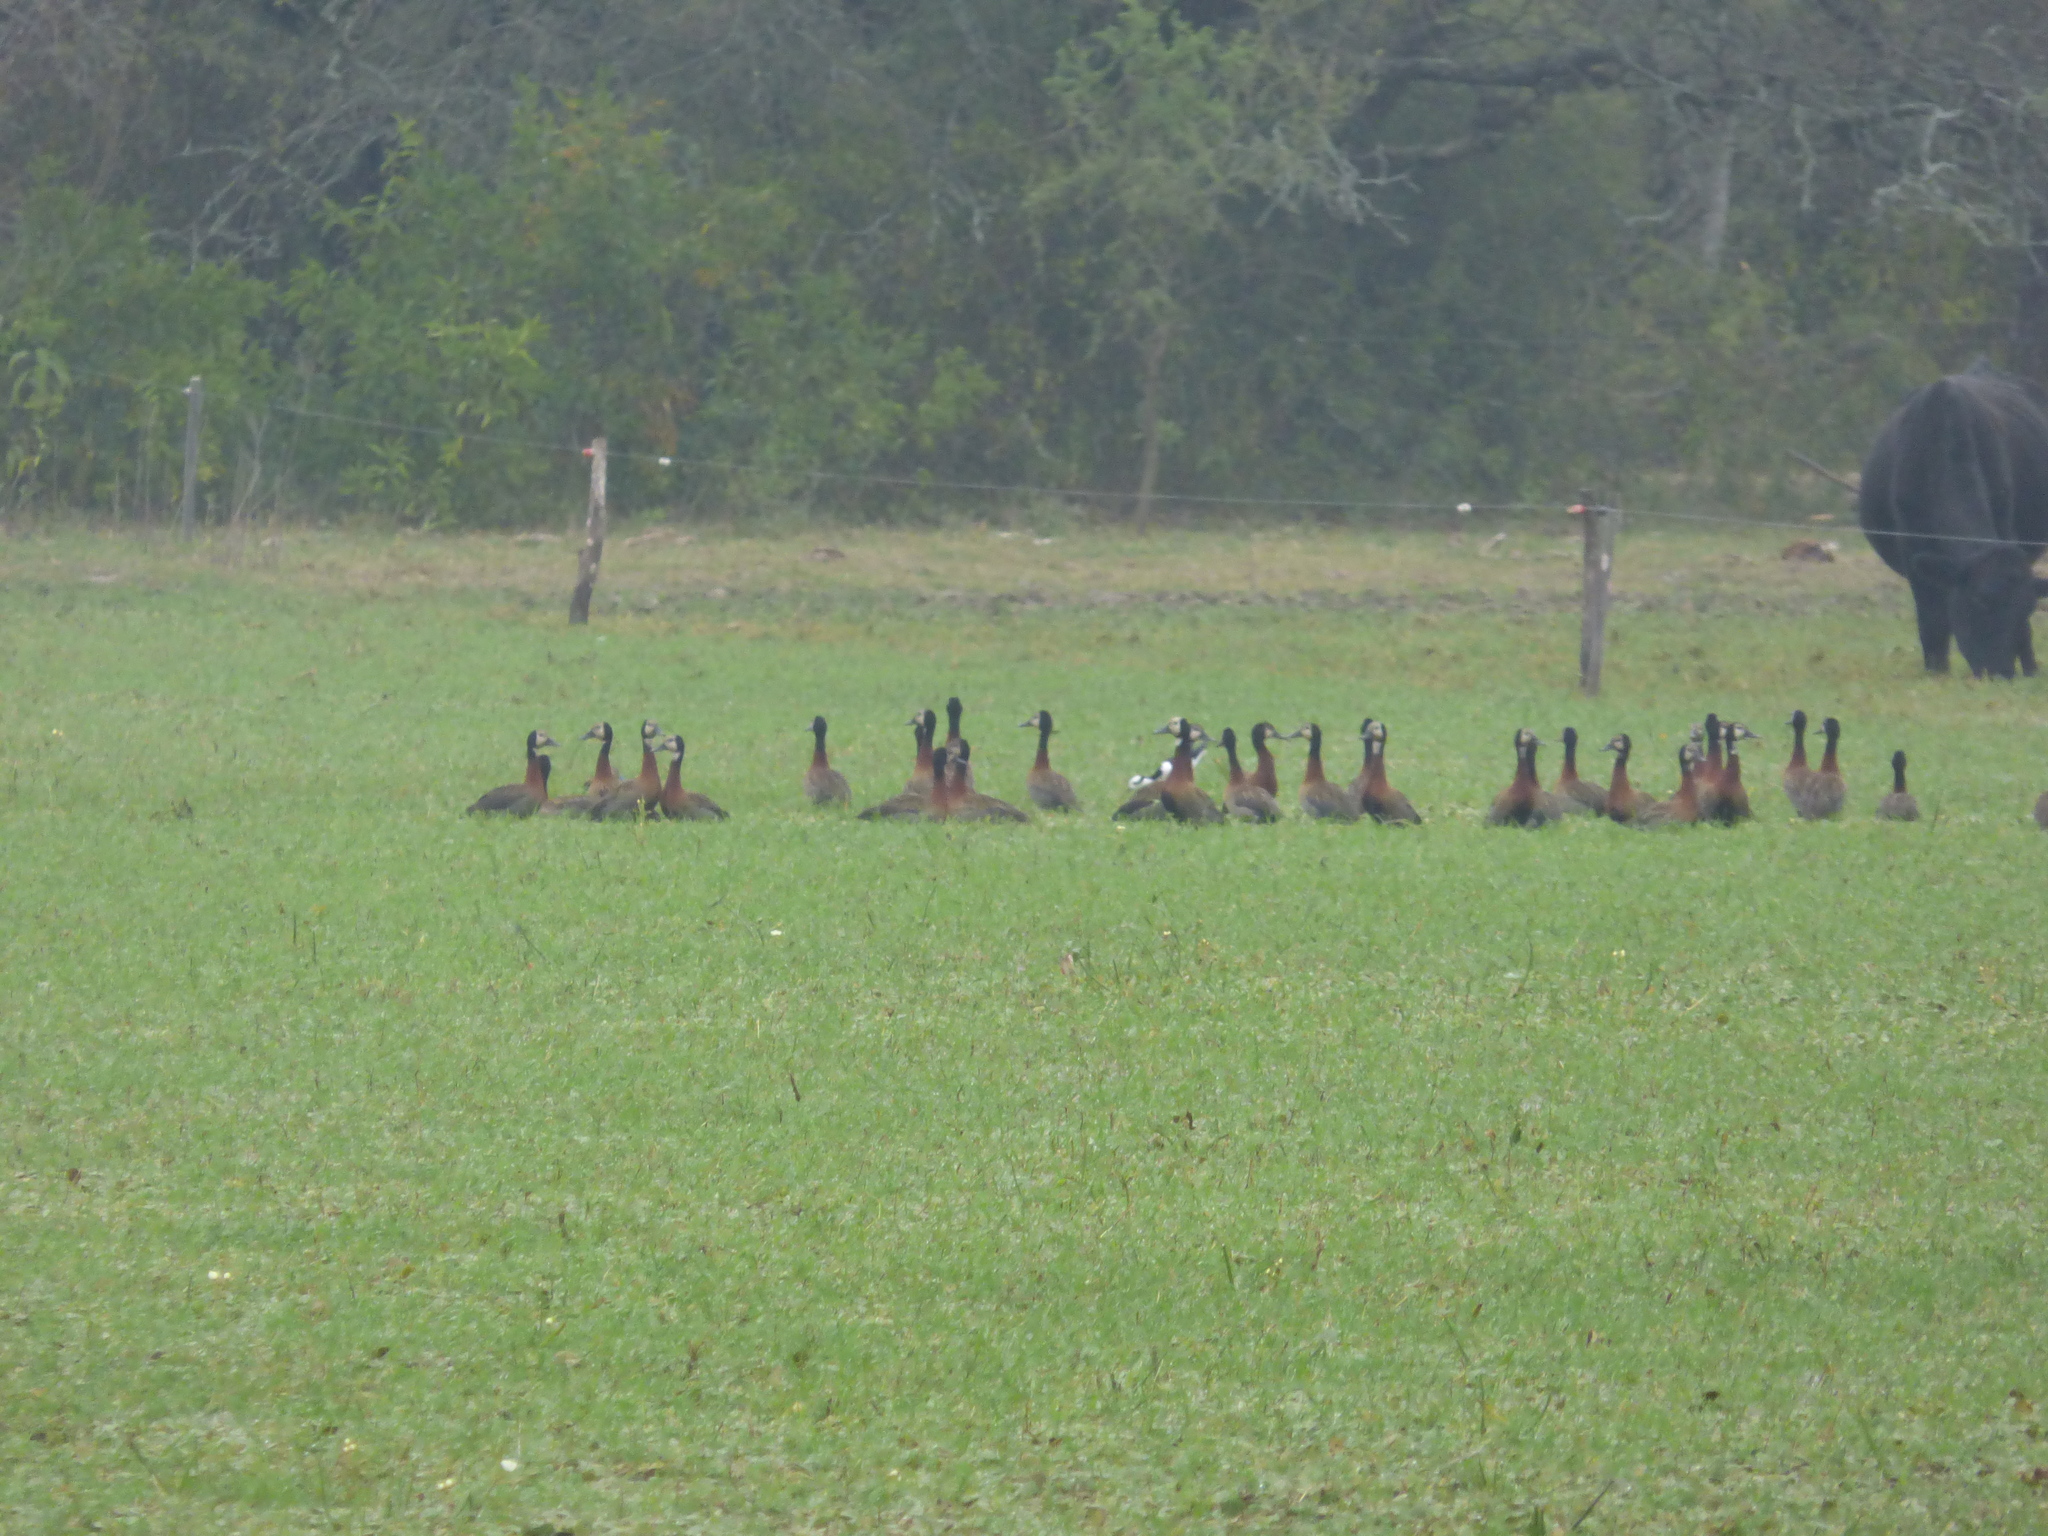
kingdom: Animalia
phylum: Chordata
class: Aves
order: Anseriformes
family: Anatidae
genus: Dendrocygna
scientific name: Dendrocygna viduata
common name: White-faced whistling duck
